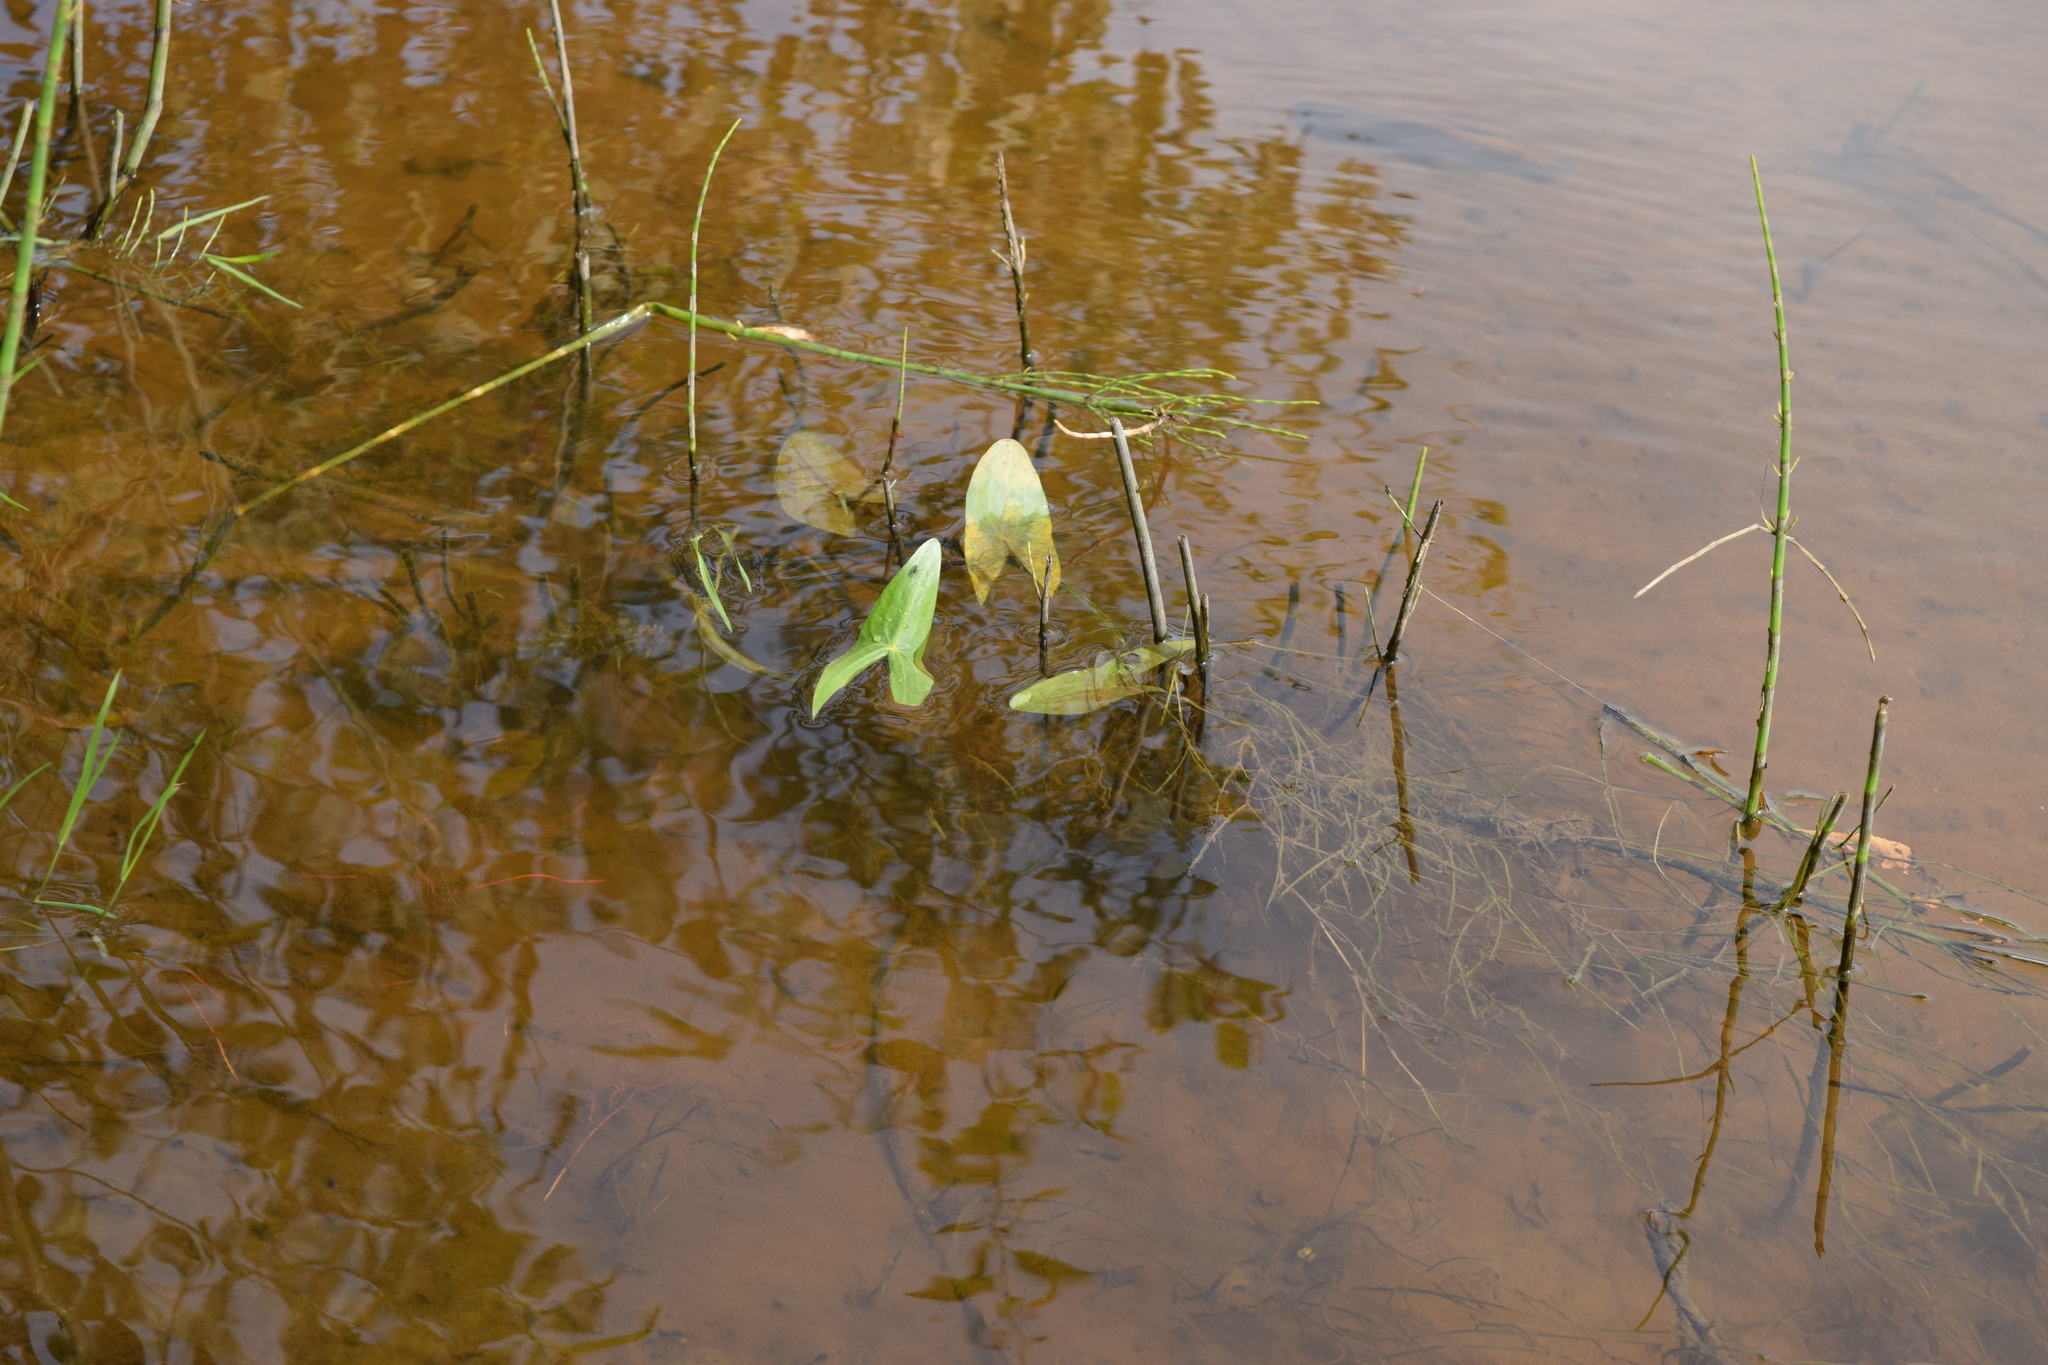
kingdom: Plantae
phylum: Tracheophyta
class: Liliopsida
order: Alismatales
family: Alismataceae
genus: Sagittaria
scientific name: Sagittaria sagittifolia
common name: Arrowhead
